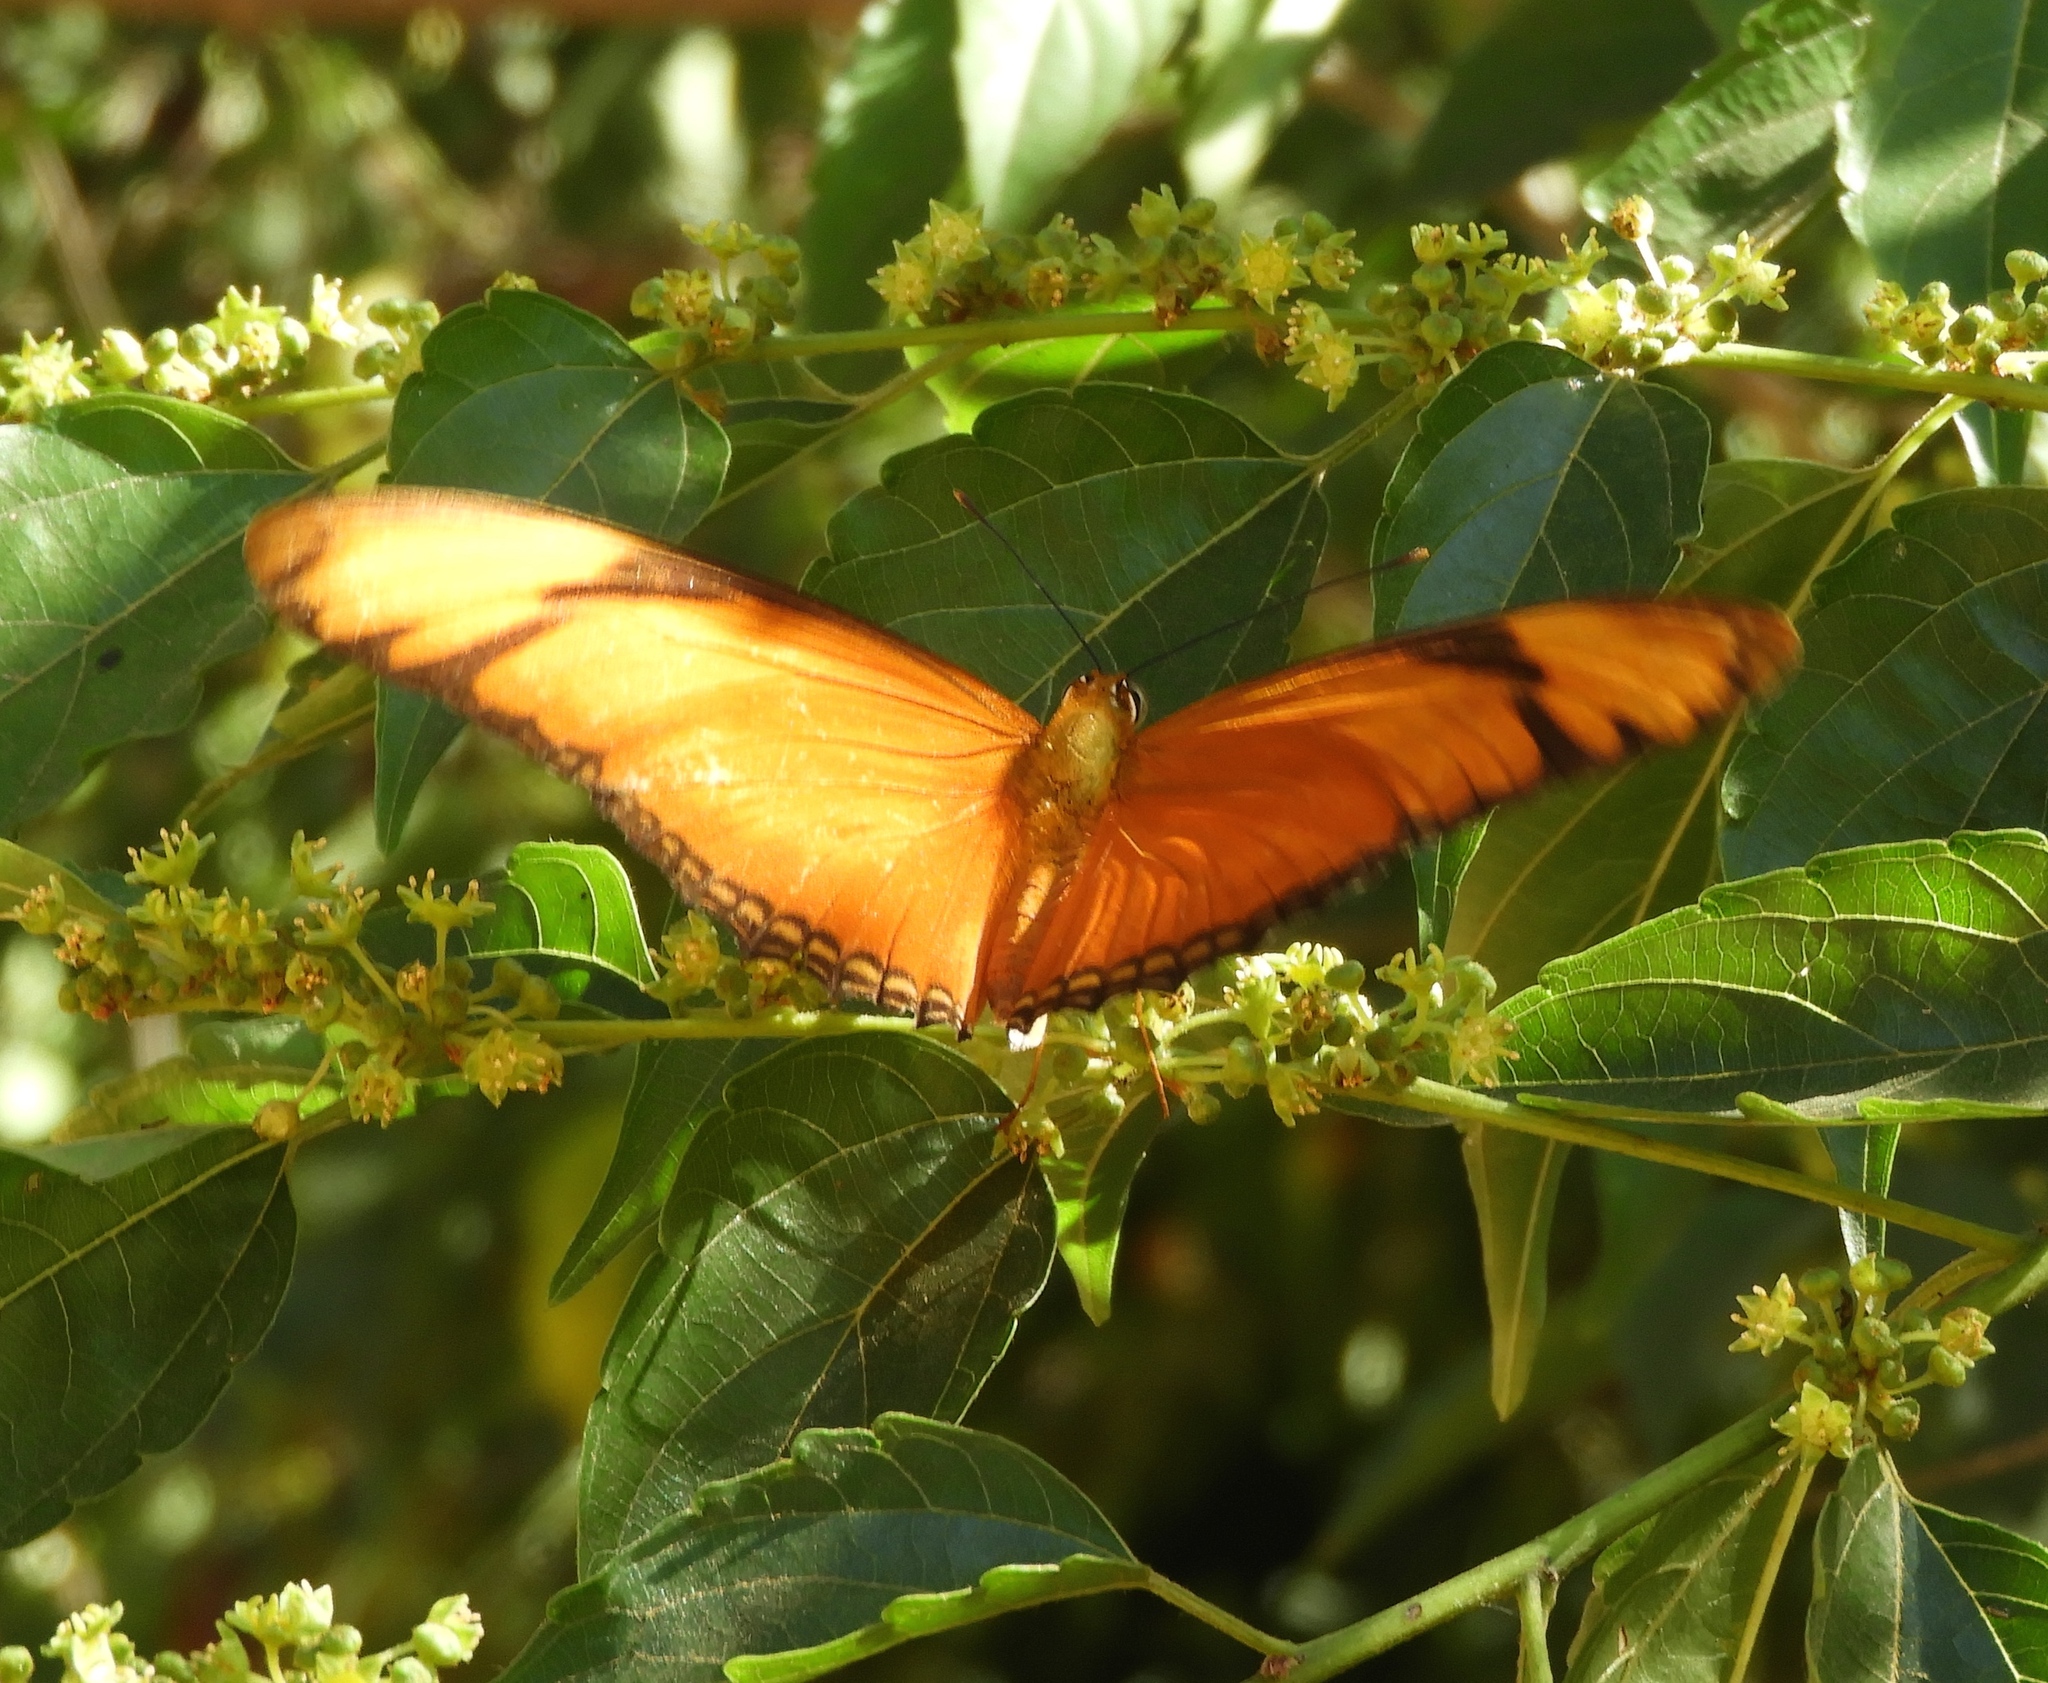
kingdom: Animalia
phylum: Arthropoda
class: Insecta
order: Lepidoptera
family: Nymphalidae
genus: Dryas
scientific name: Dryas iulia
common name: Flambeau
